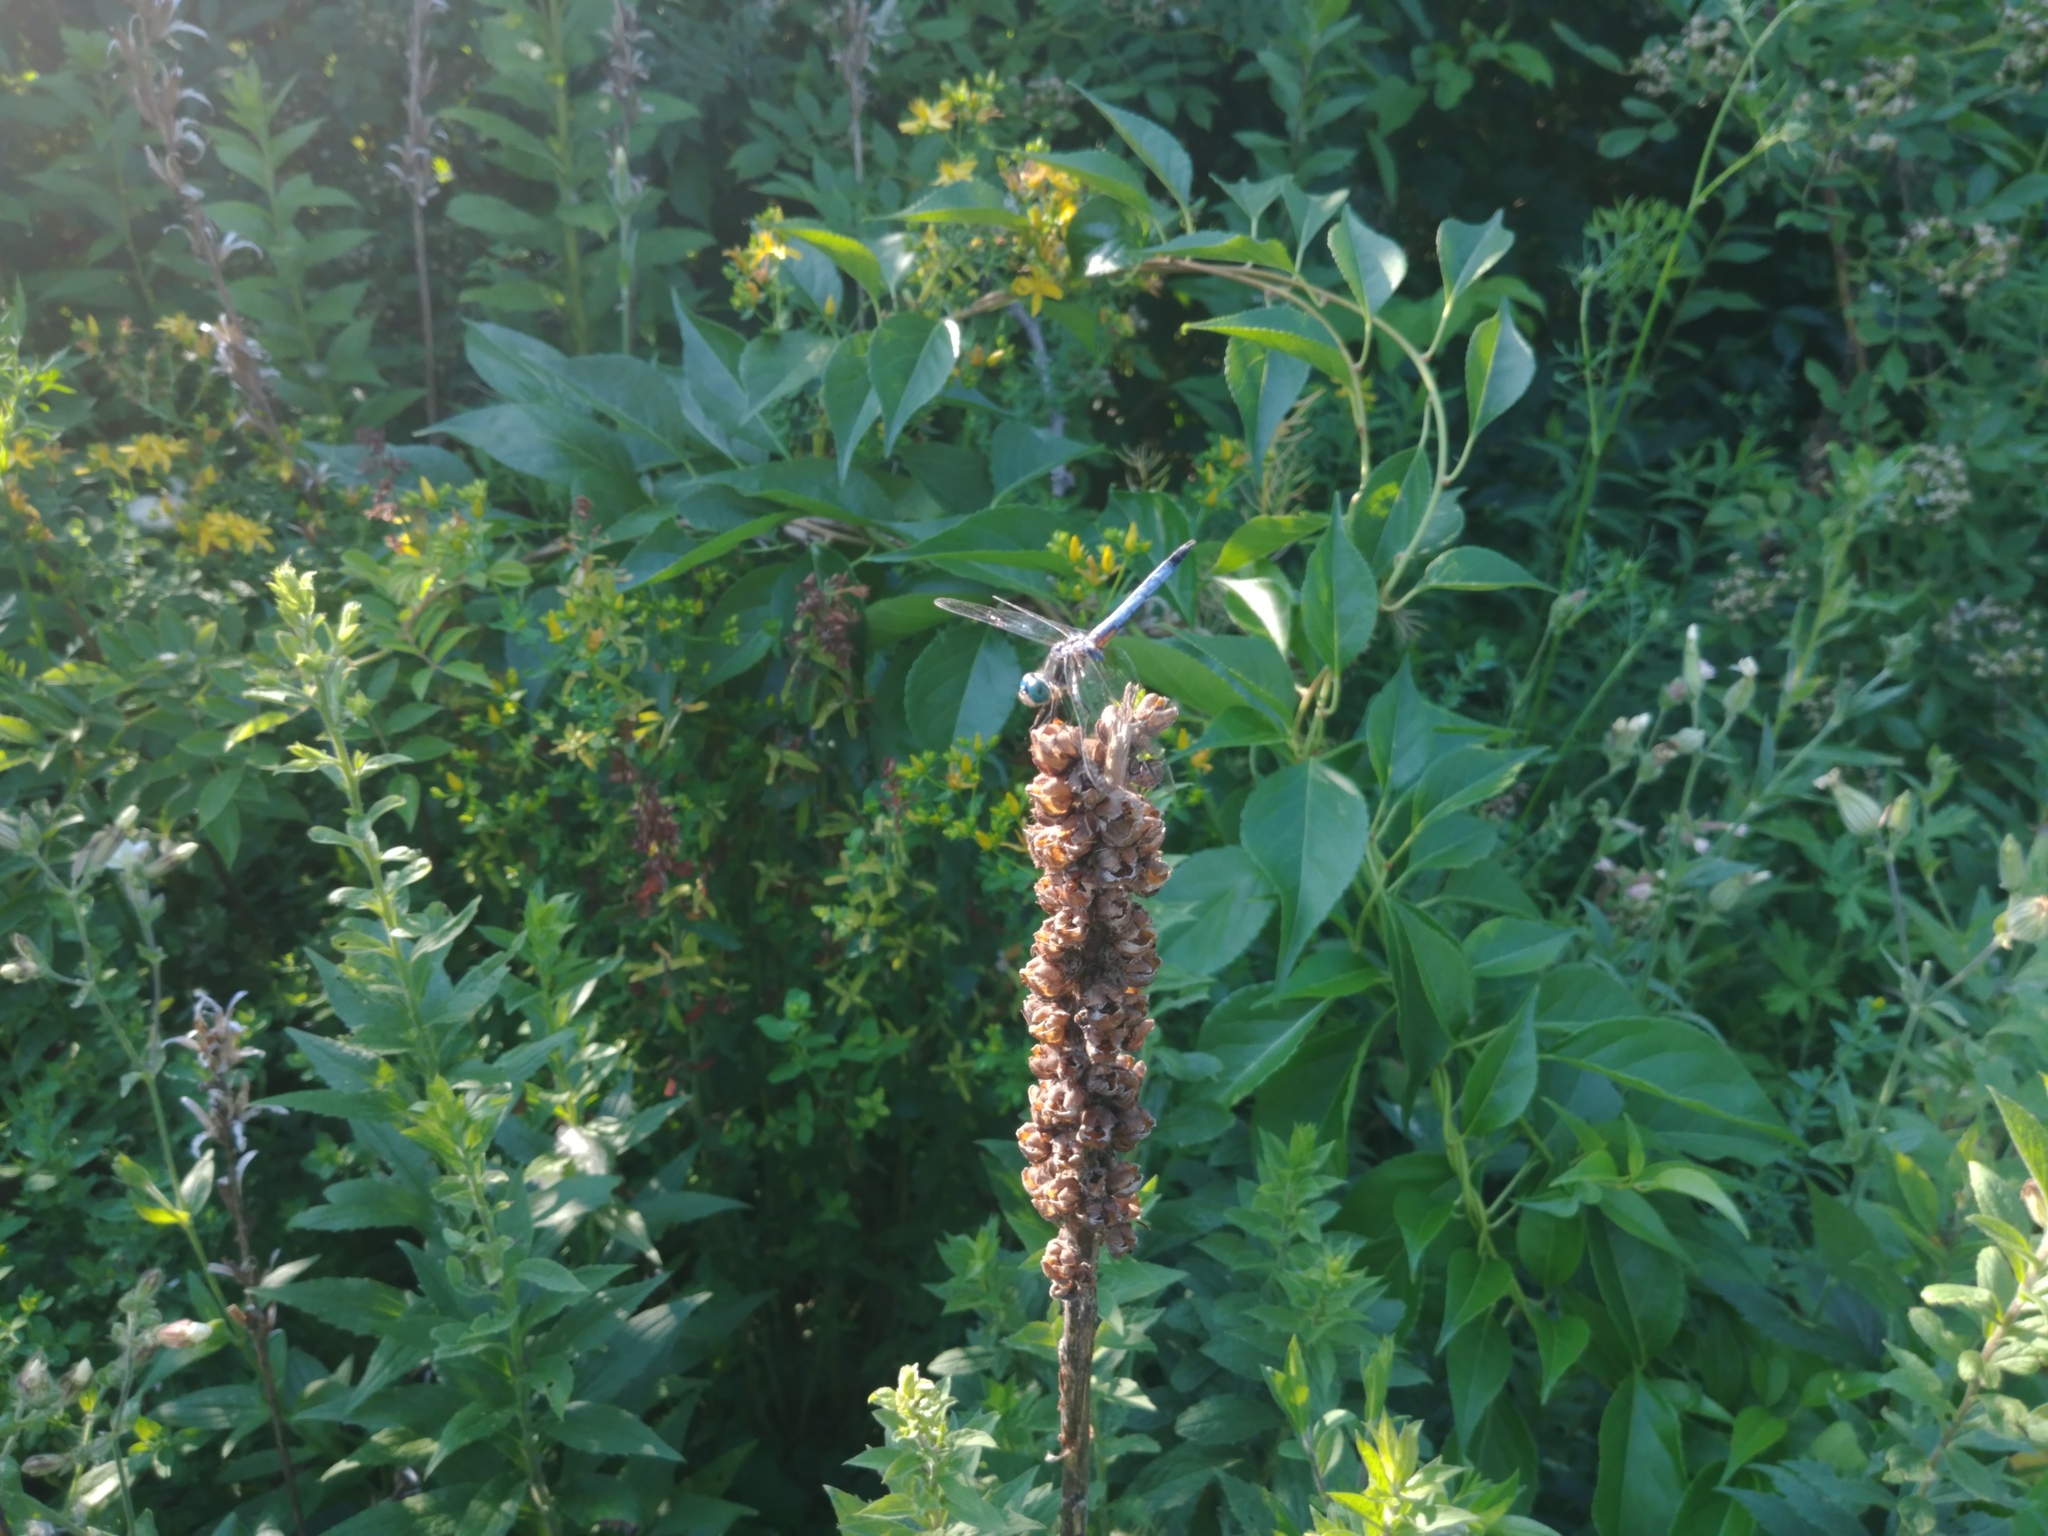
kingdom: Animalia
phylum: Arthropoda
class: Insecta
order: Odonata
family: Libellulidae
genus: Pachydiplax
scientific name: Pachydiplax longipennis
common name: Blue dasher
